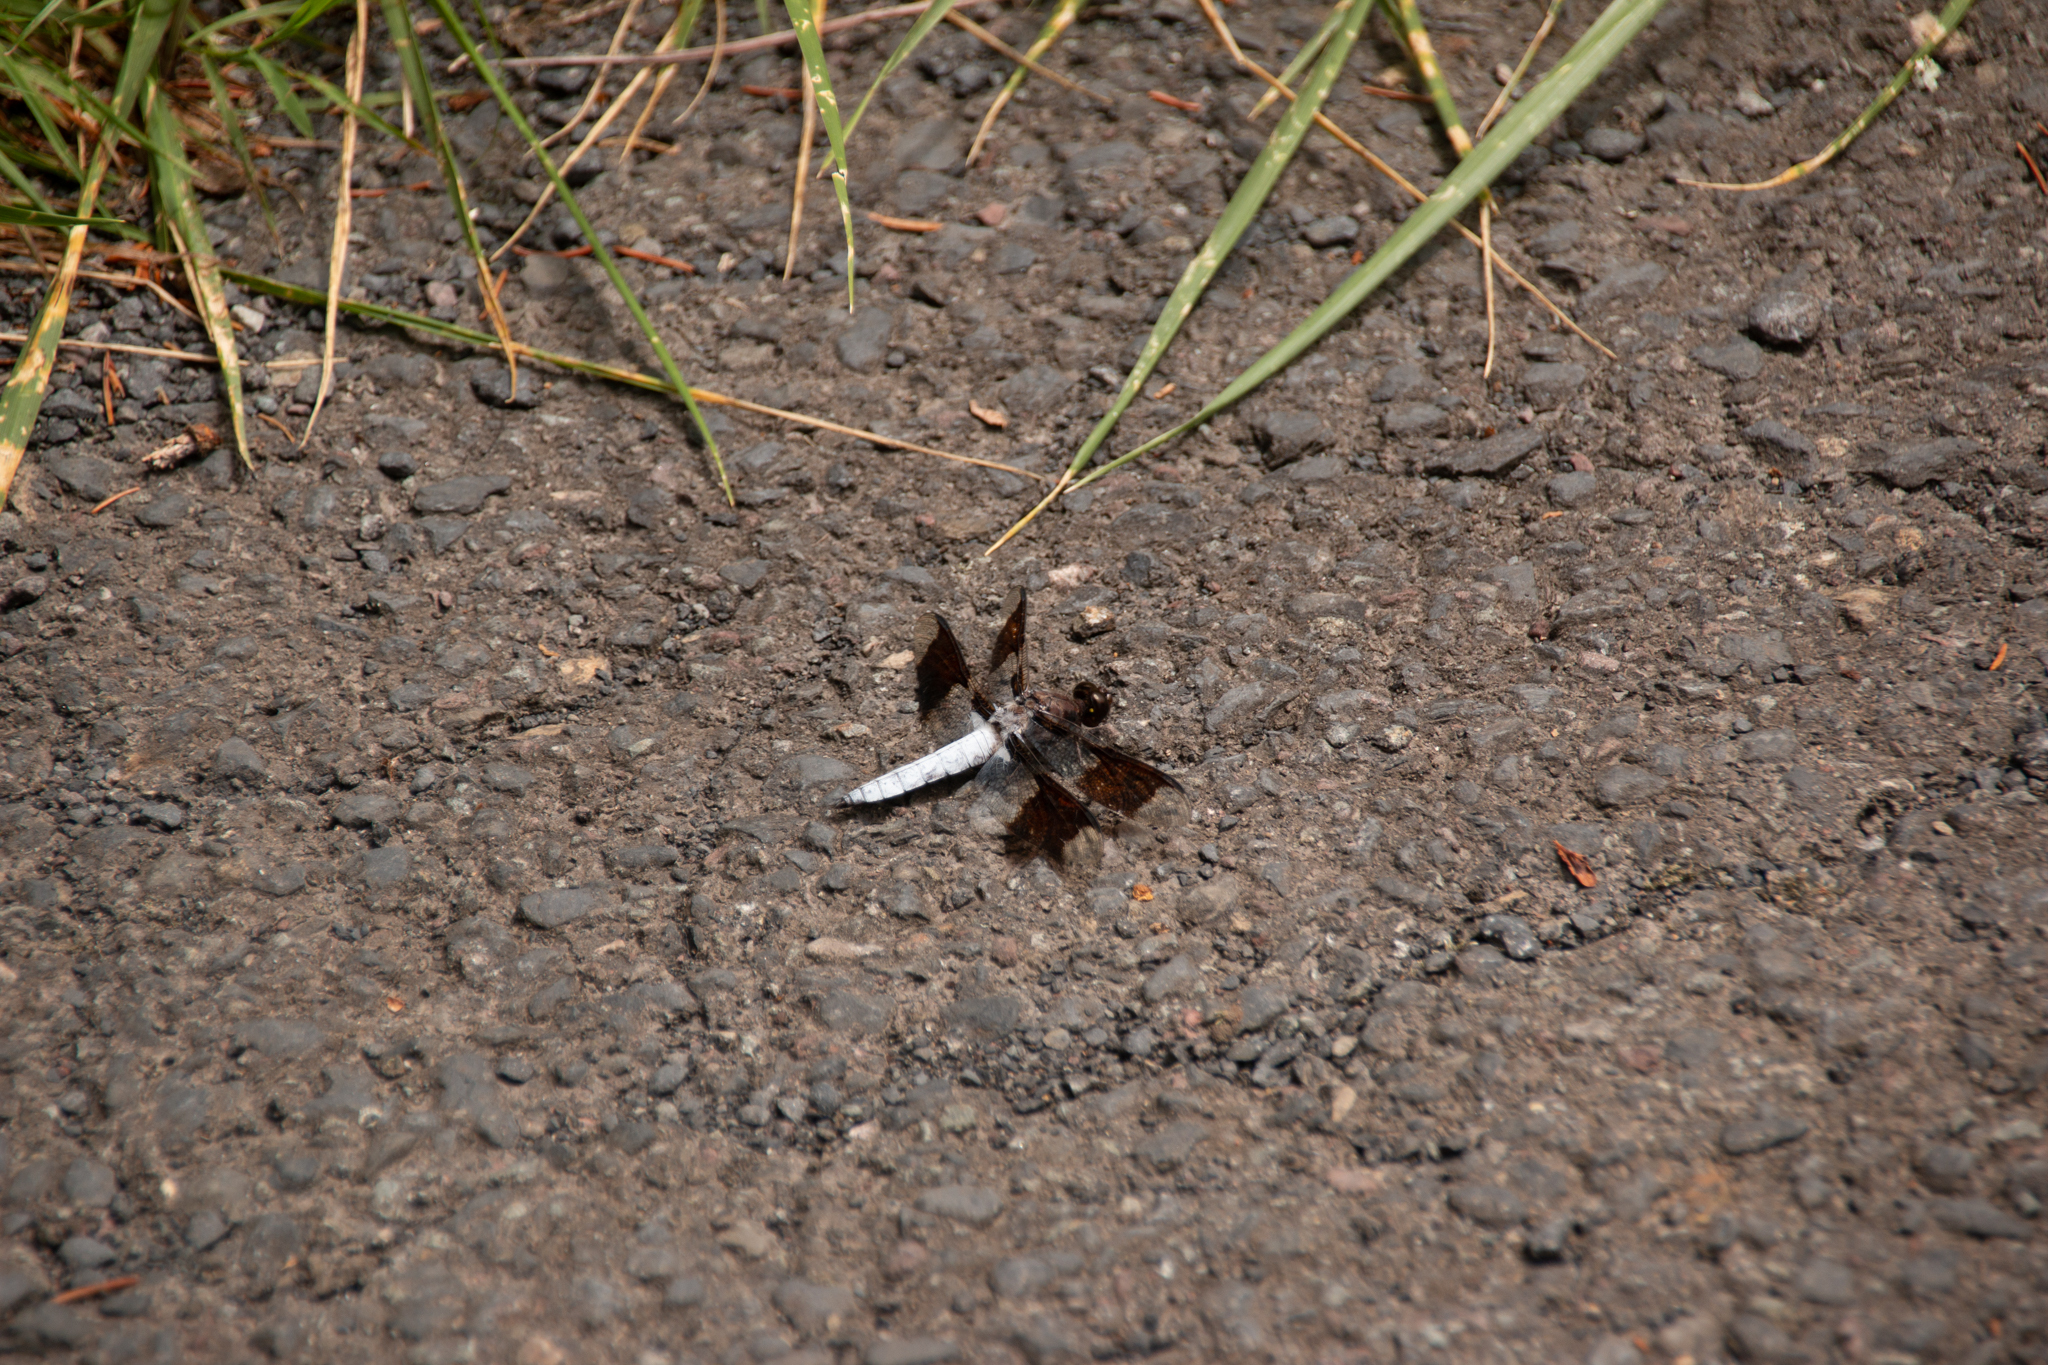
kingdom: Animalia
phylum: Arthropoda
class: Insecta
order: Odonata
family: Libellulidae
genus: Plathemis
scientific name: Plathemis lydia
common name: Common whitetail
